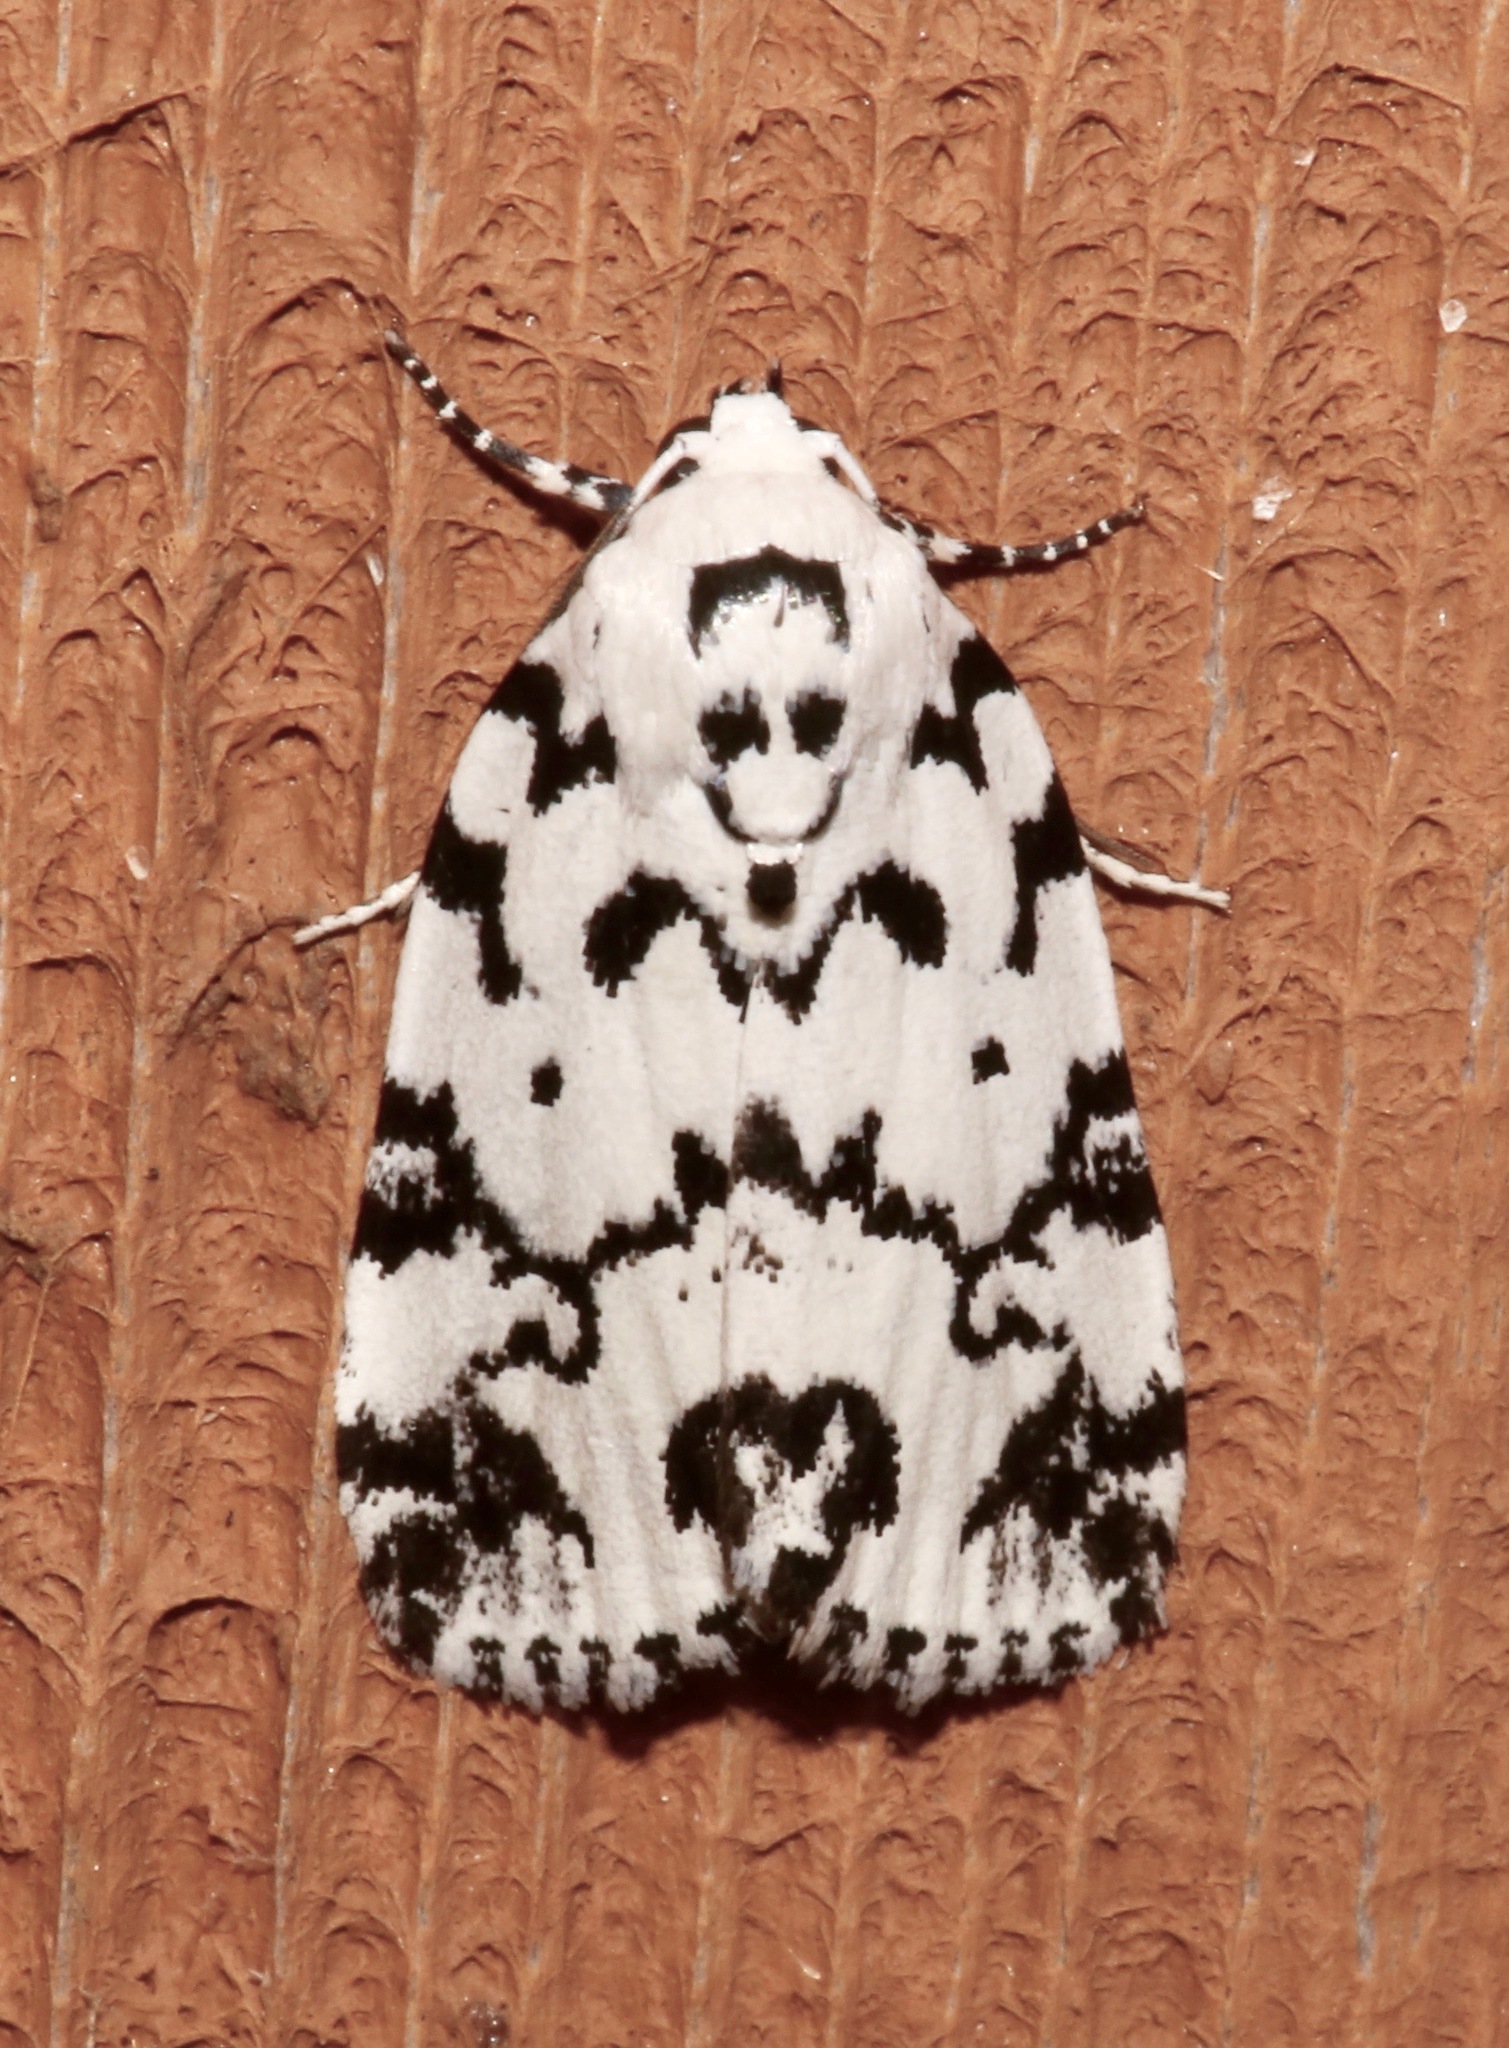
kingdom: Animalia
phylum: Arthropoda
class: Insecta
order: Lepidoptera
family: Noctuidae
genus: Polygrammate
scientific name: Polygrammate hebraeicum
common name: Hebrew moth
